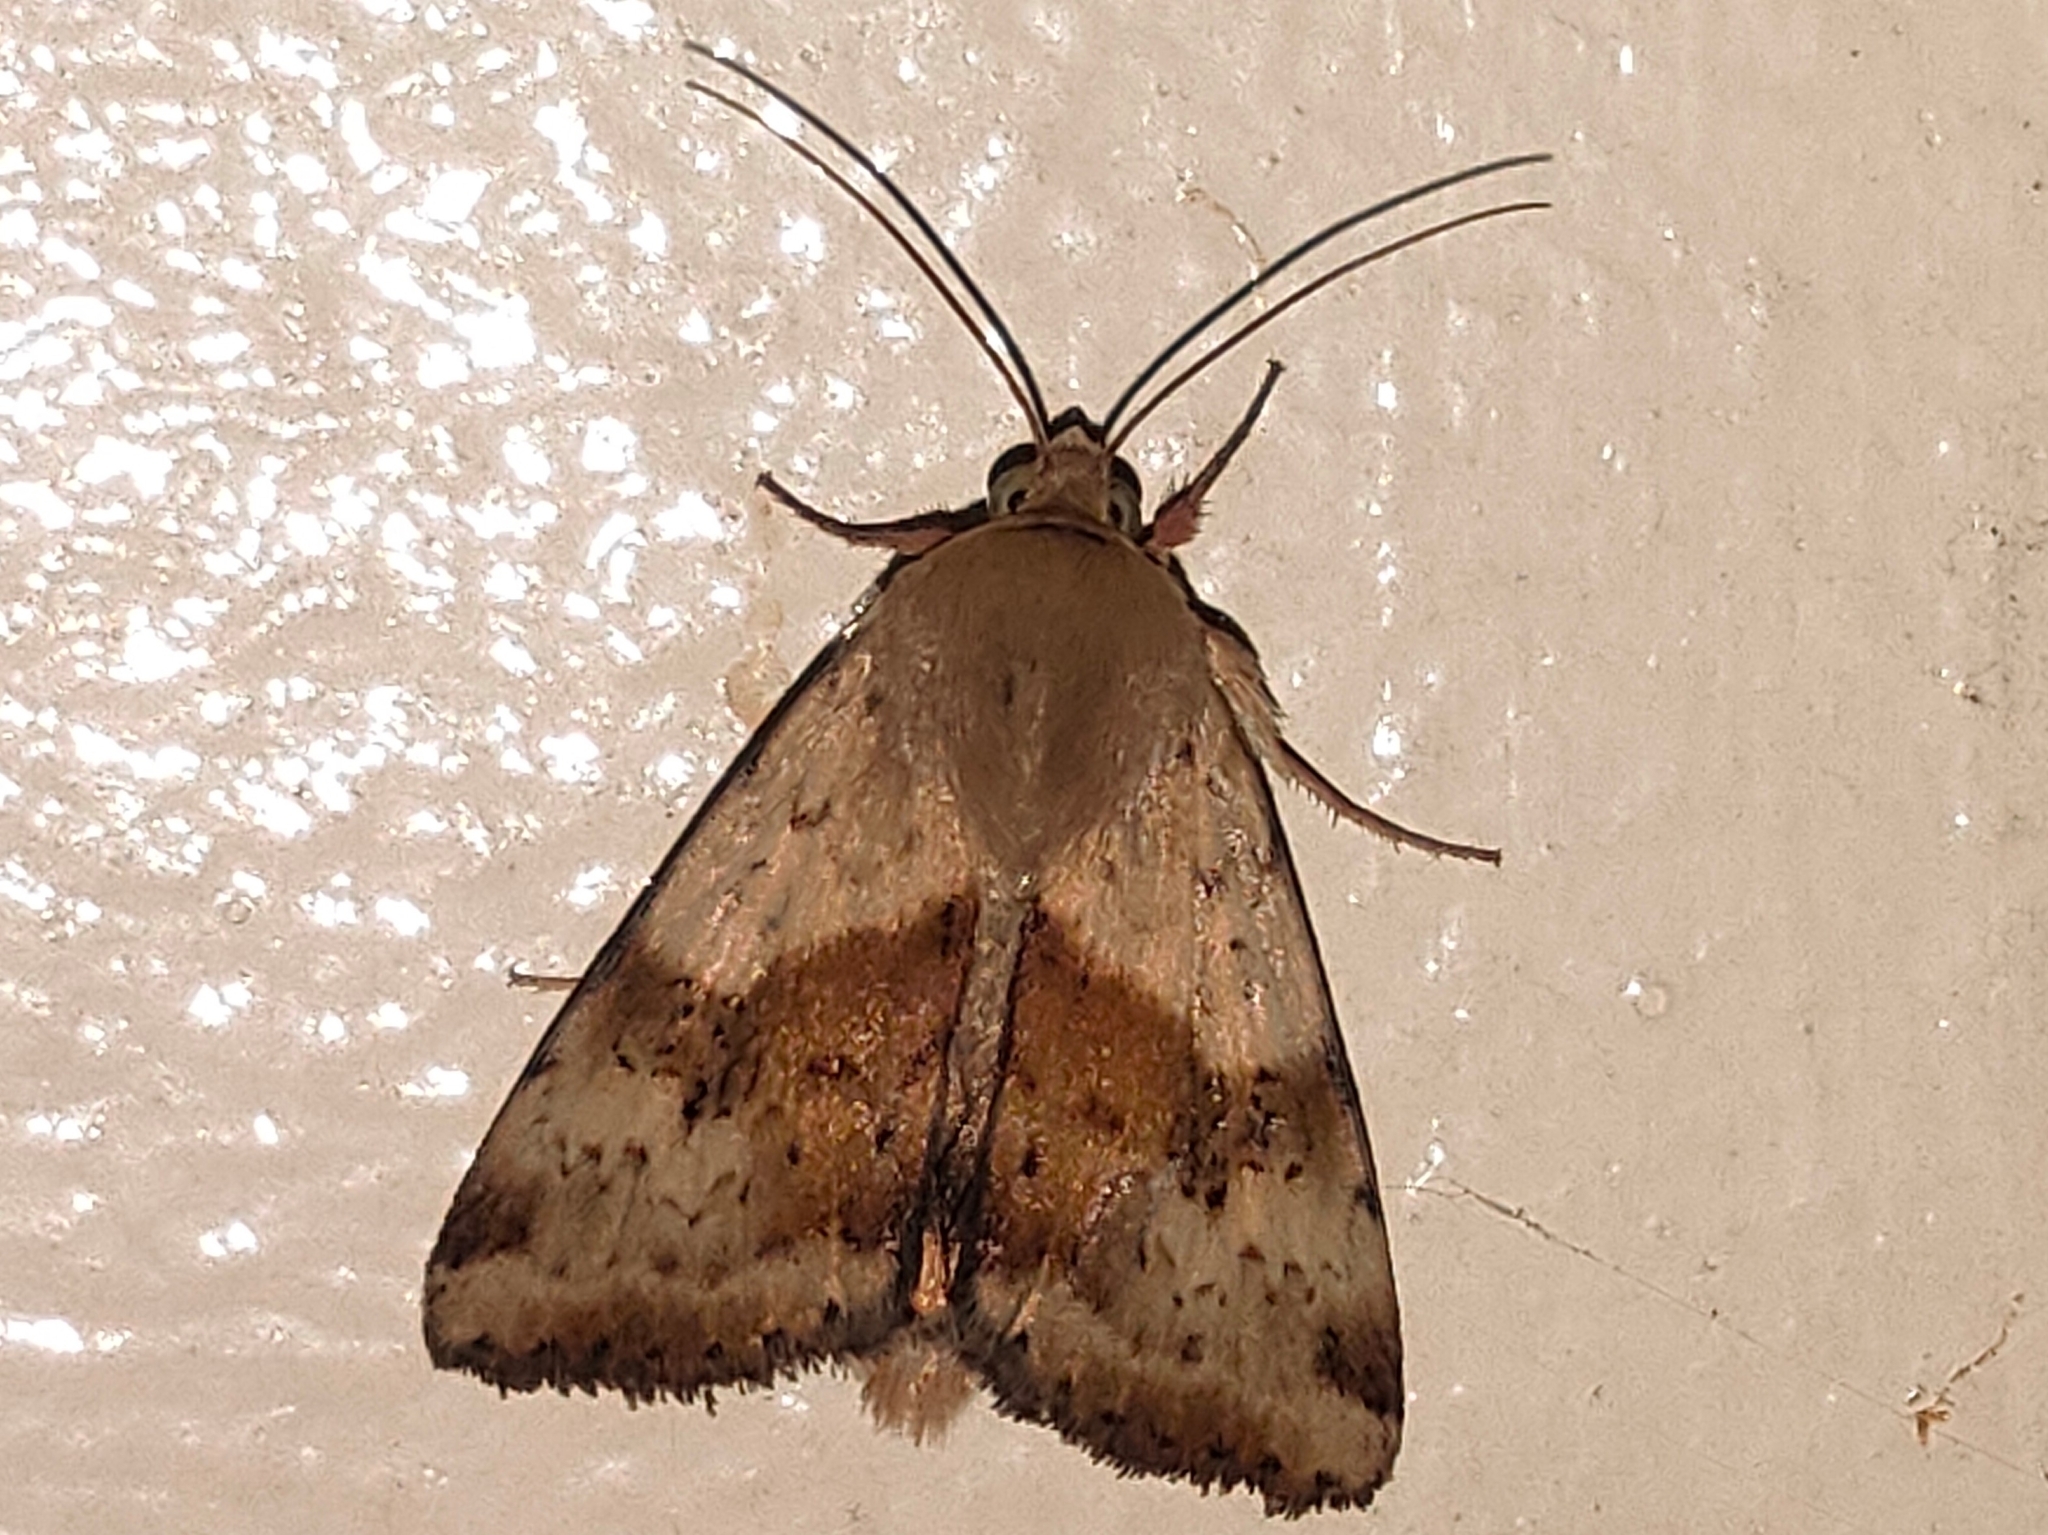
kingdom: Animalia
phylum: Arthropoda
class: Insecta
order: Lepidoptera
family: Noctuidae
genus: Heliothis
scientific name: Heliothis adaucta
